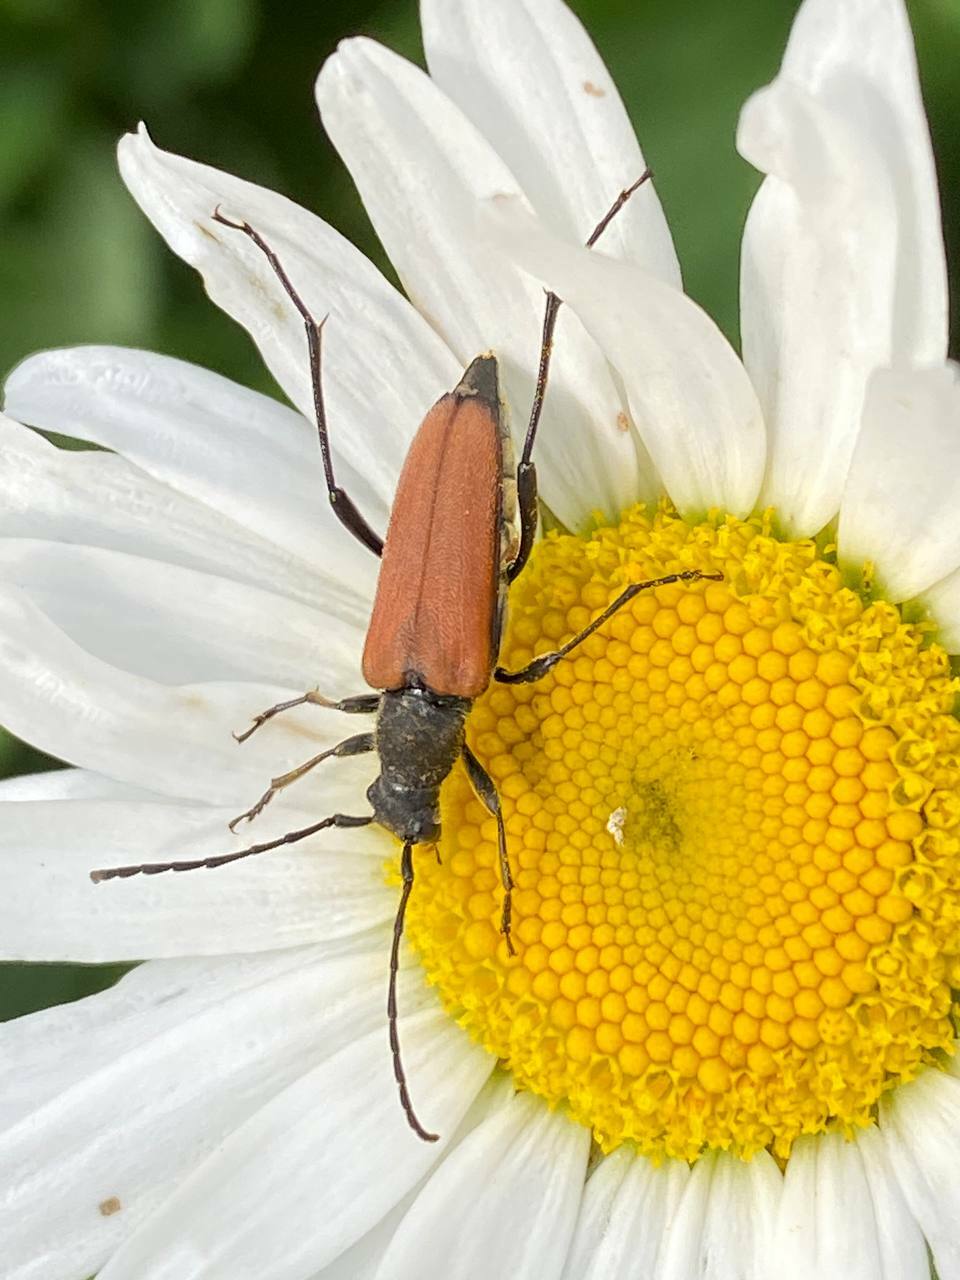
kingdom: Animalia
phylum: Arthropoda
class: Insecta
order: Coleoptera
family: Cerambycidae
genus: Anastrangalia
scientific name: Anastrangalia reyi
